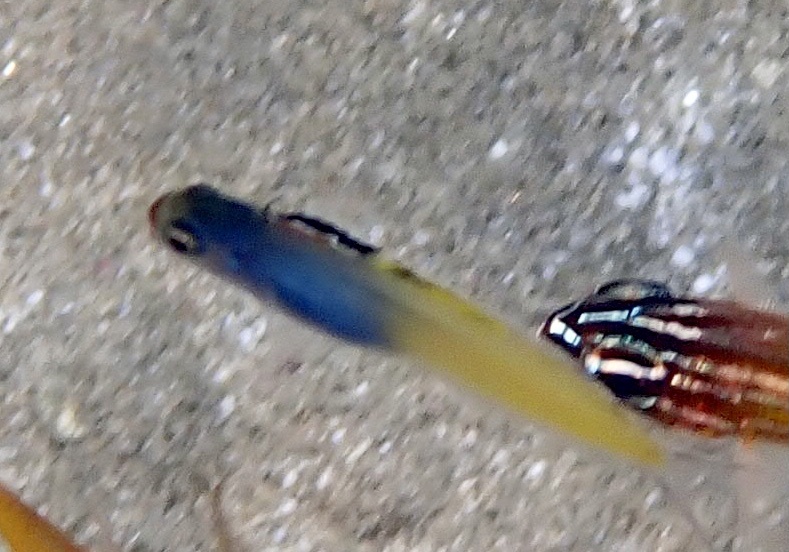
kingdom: Animalia
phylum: Chordata
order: Perciformes
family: Blenniidae
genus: Plagiotremus
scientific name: Plagiotremus townsendi
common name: Townsend's fangblenny
